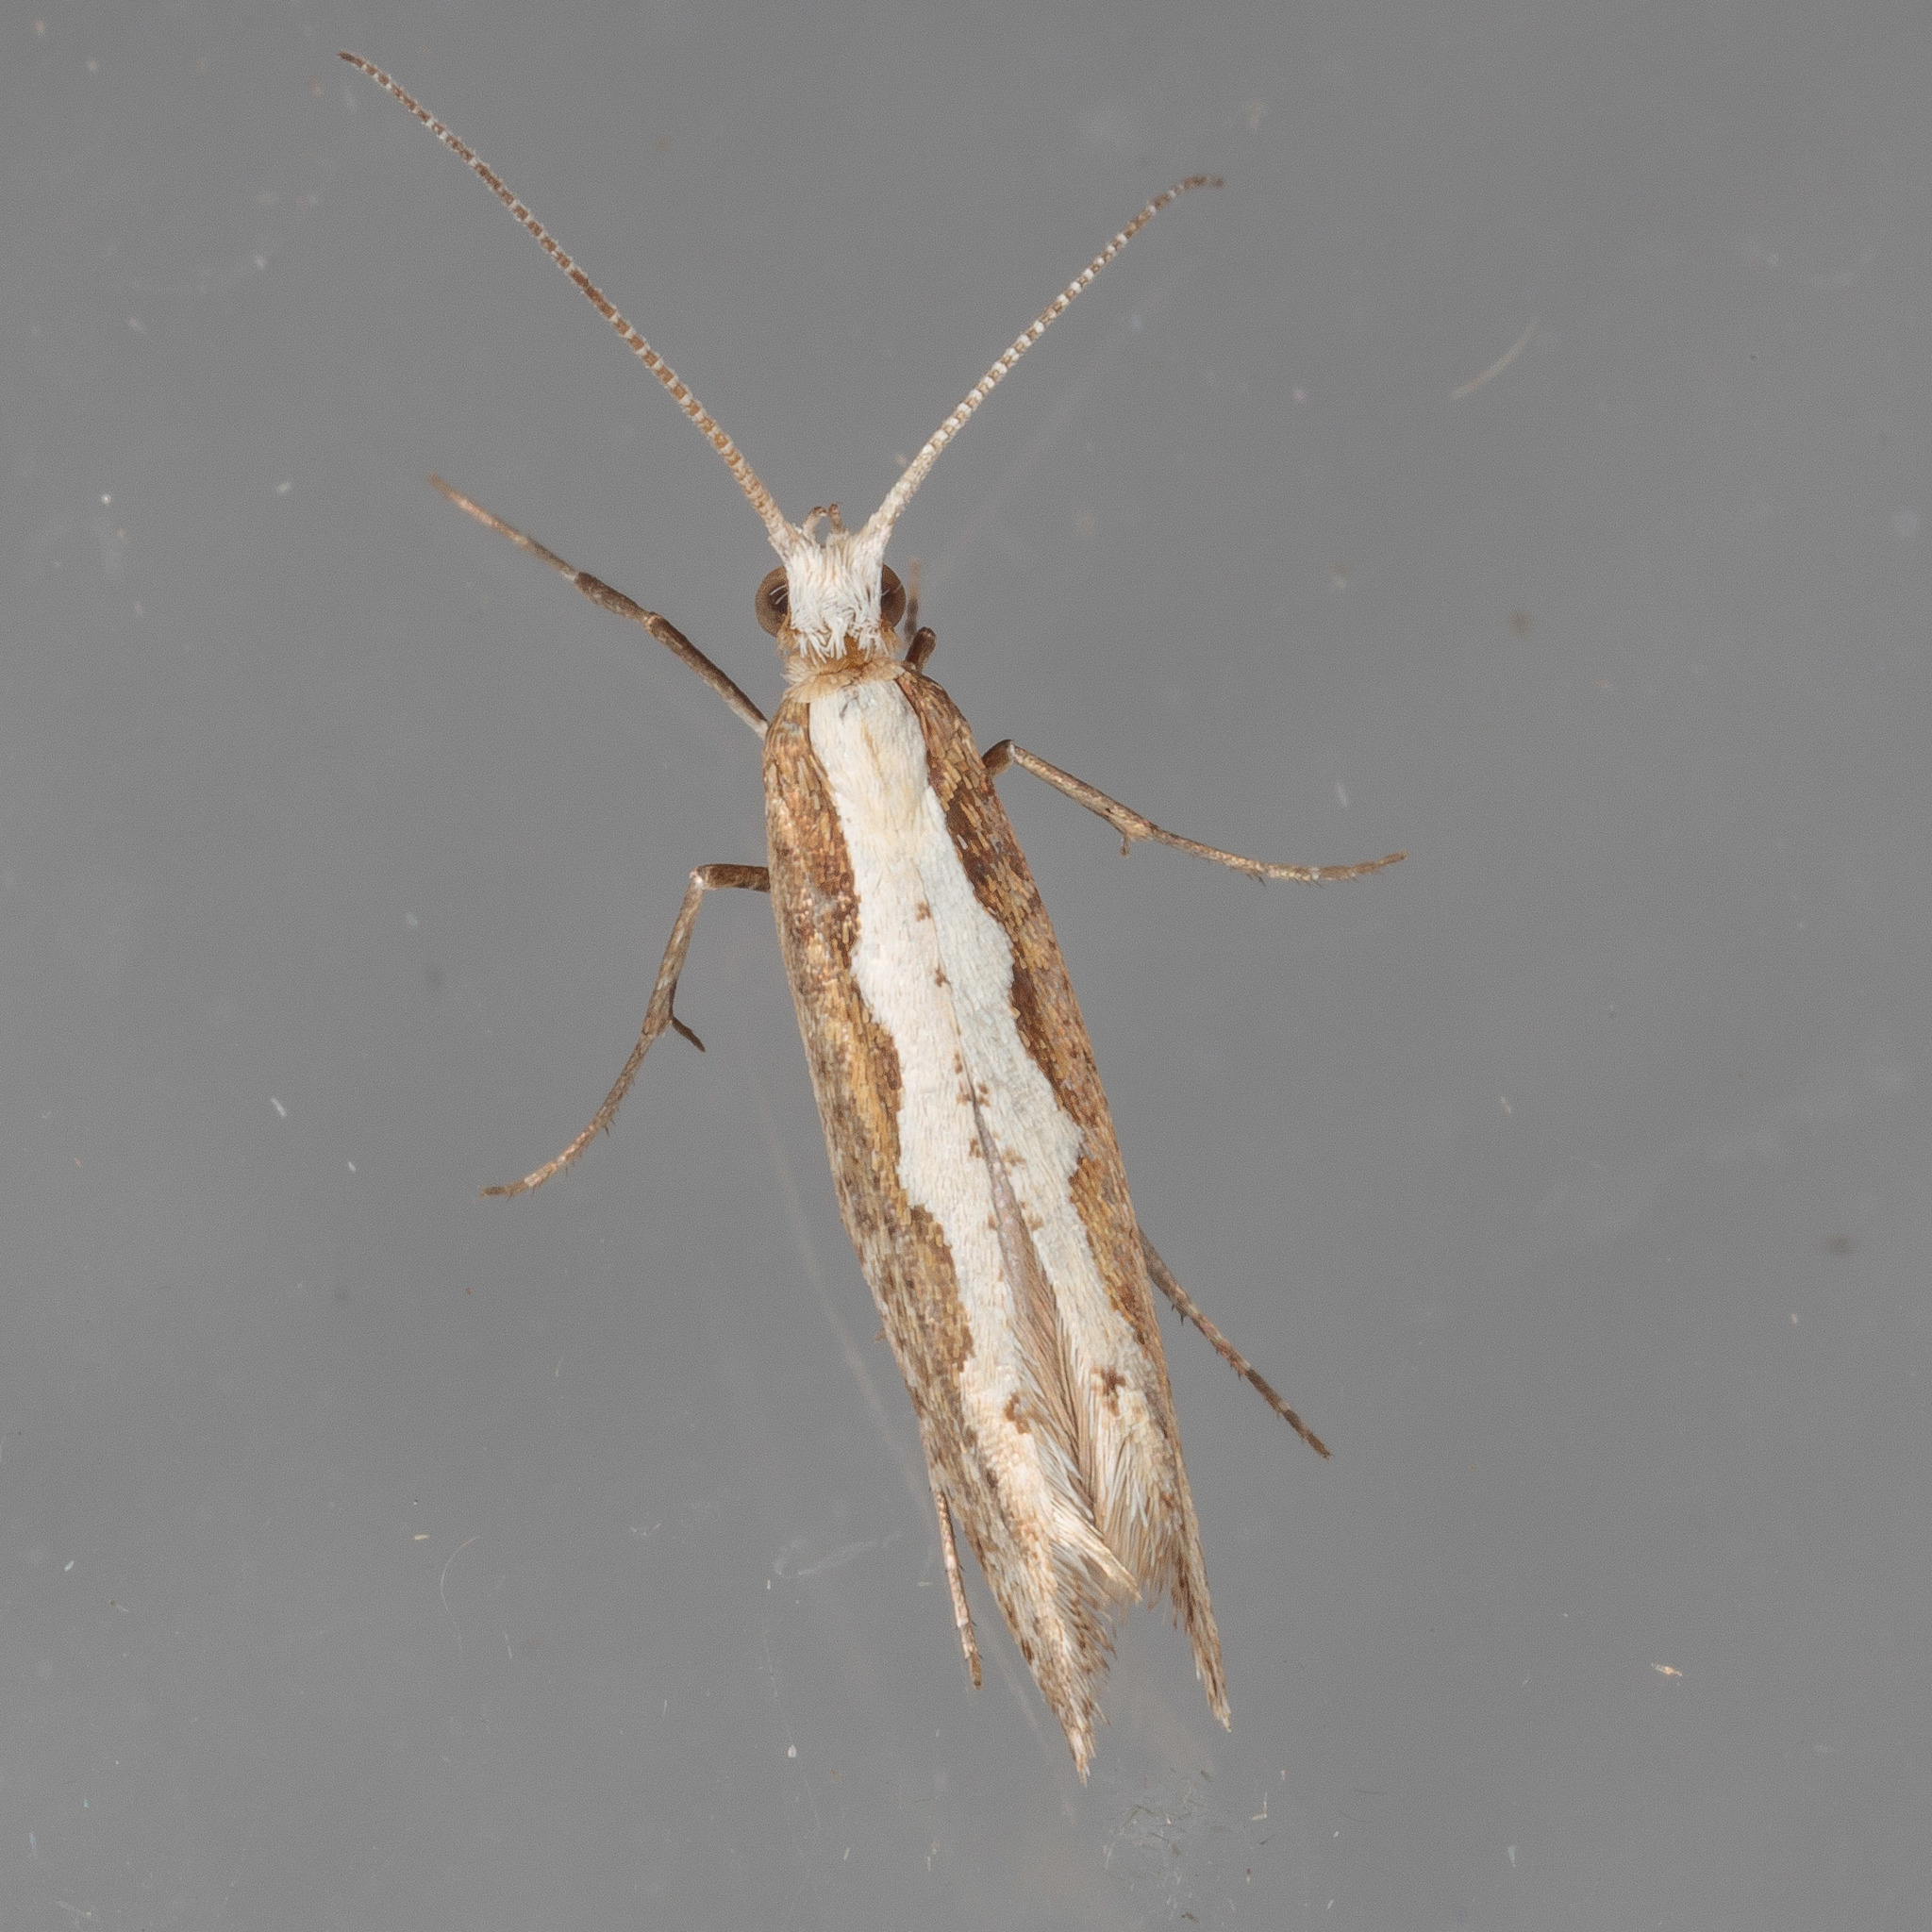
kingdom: Animalia
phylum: Arthropoda
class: Insecta
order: Lepidoptera
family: Plutellidae
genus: Plutella
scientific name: Plutella xylostella
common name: Diamond-back moth
